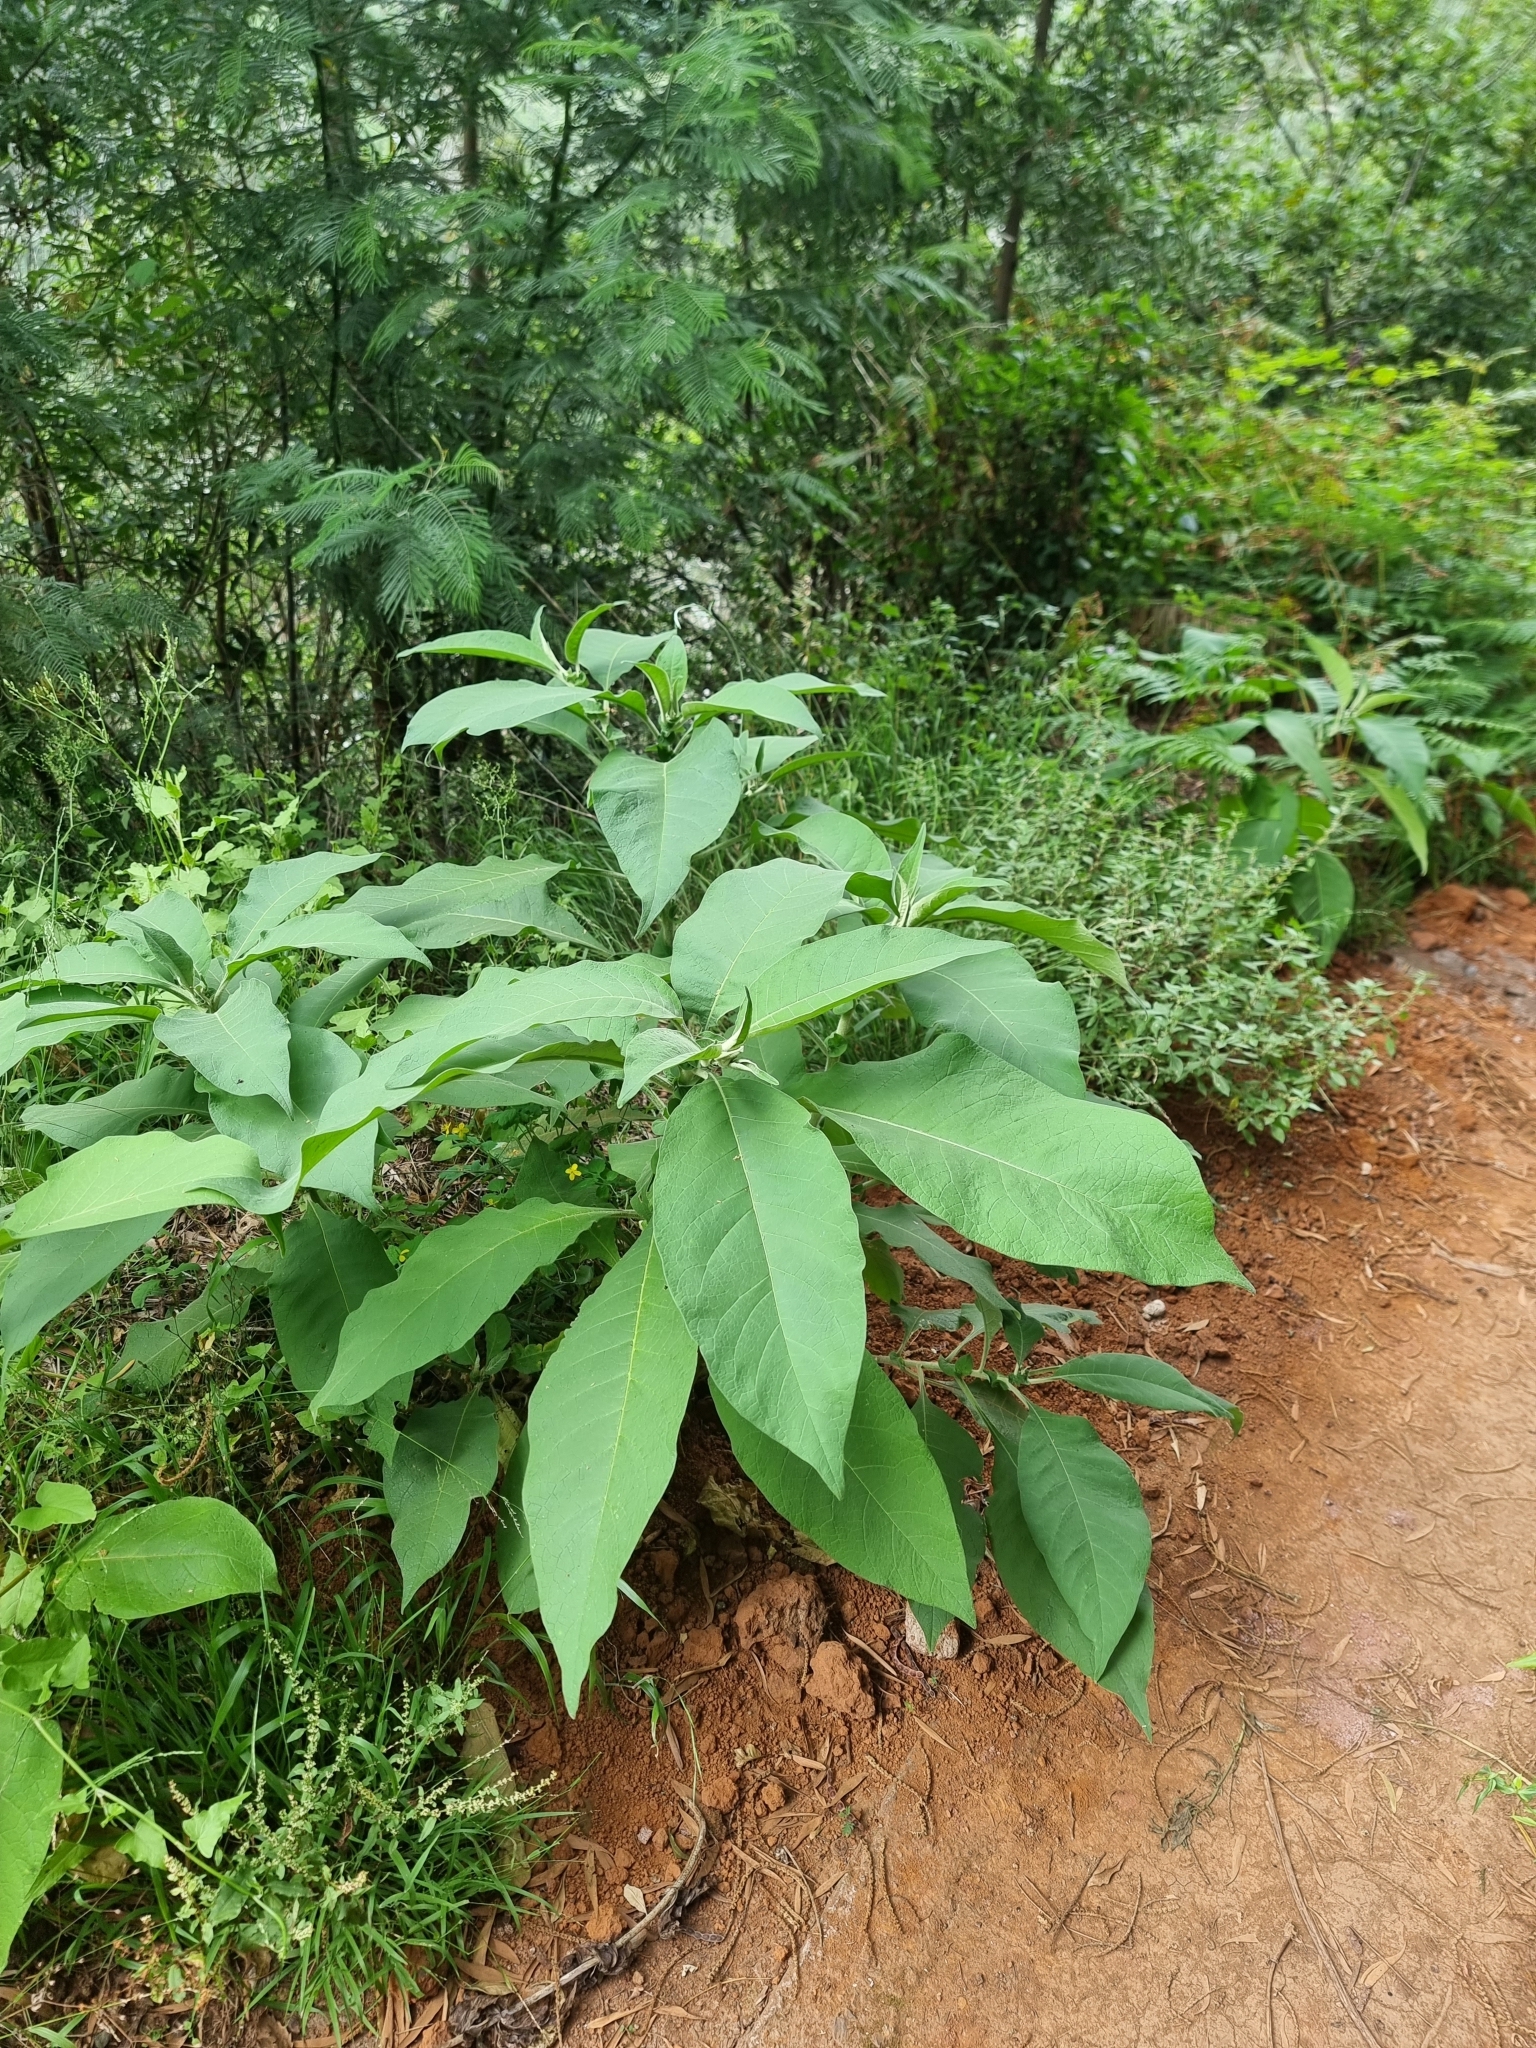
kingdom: Plantae
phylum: Tracheophyta
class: Magnoliopsida
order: Solanales
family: Solanaceae
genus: Solanum
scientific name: Solanum mauritianum
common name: Earleaf nightshade
